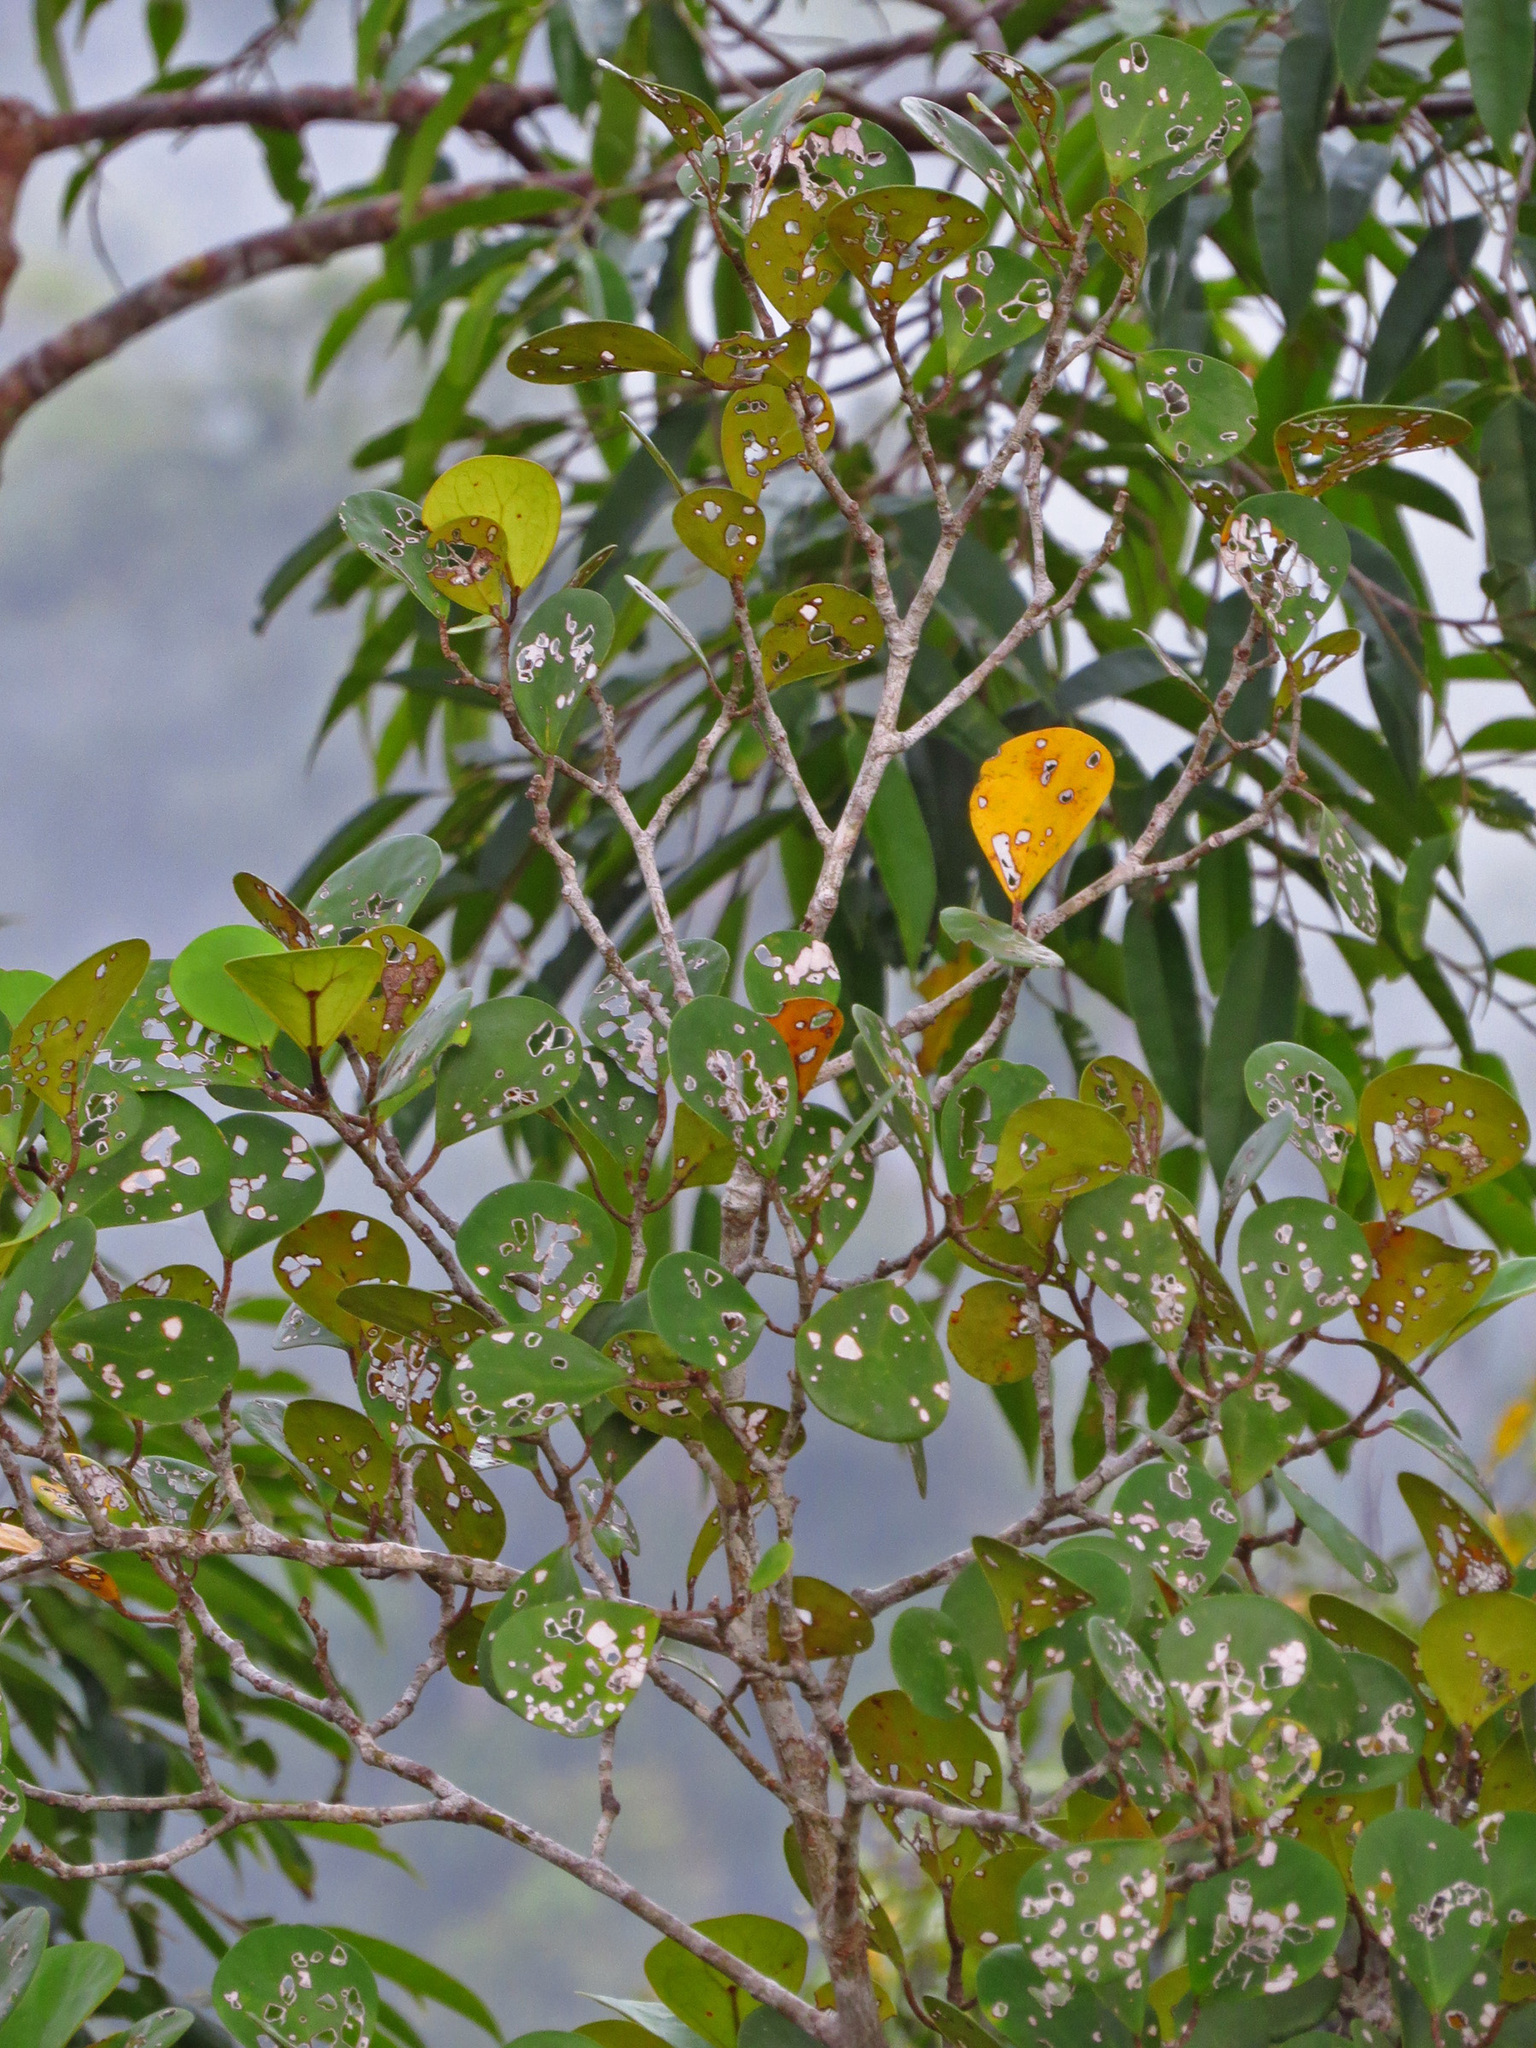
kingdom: Plantae
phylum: Tracheophyta
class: Magnoliopsida
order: Rosales
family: Moraceae
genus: Ficus
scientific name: Ficus deltoidea
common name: Mistletoe fig
